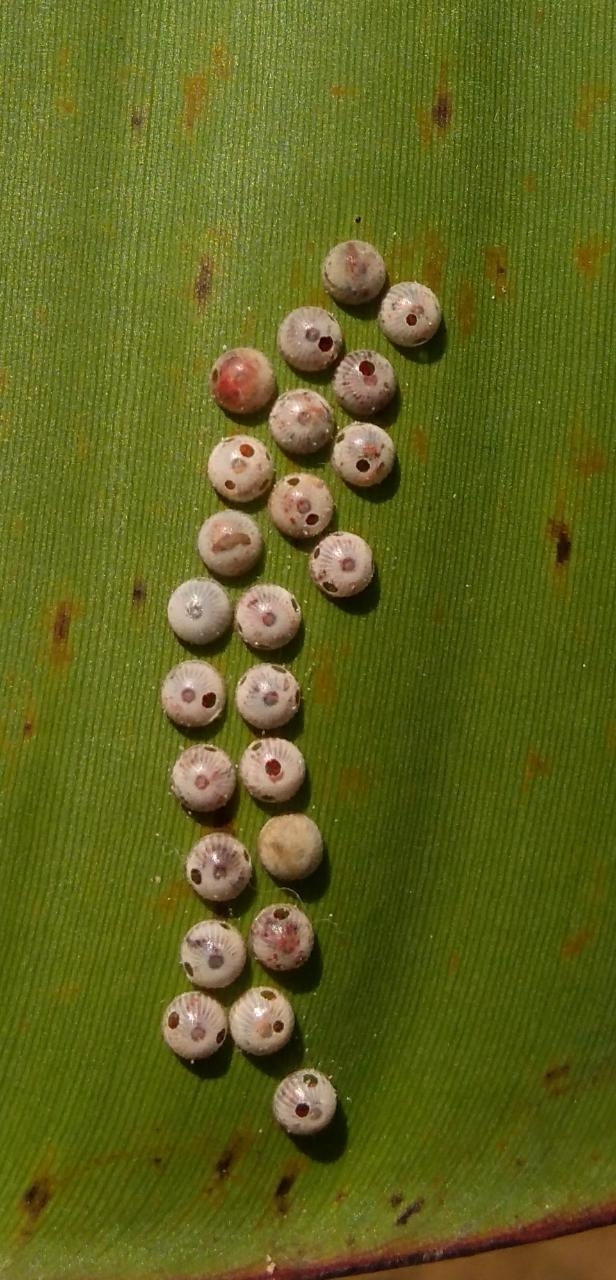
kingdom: Animalia
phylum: Arthropoda
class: Insecta
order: Lepidoptera
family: Hesperiidae
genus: Erionota
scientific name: Erionota torus
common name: Rounded palm-redeye
